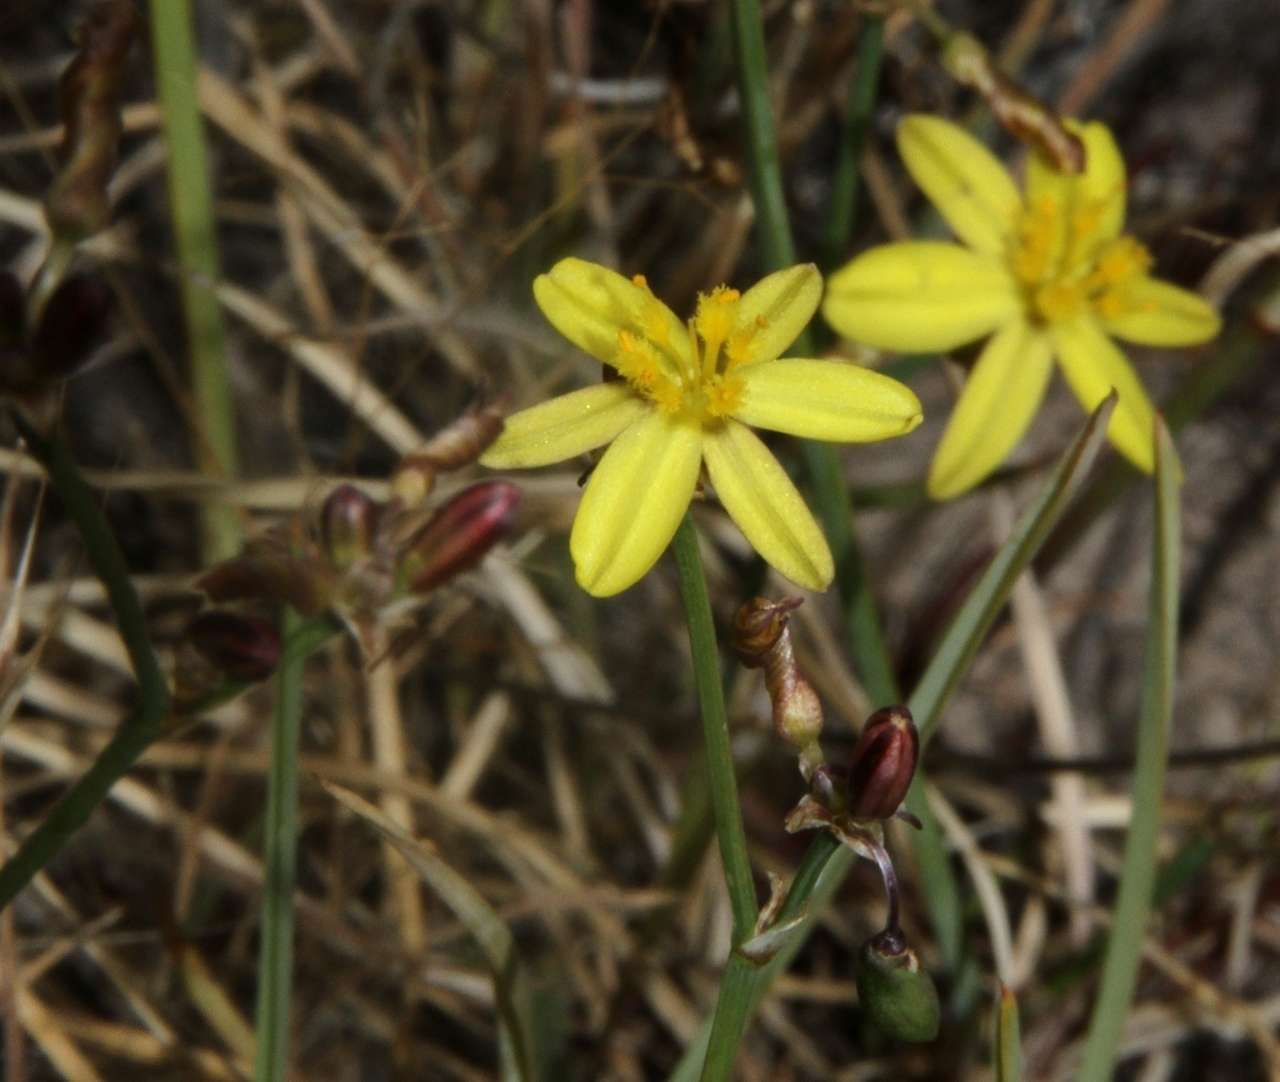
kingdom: Plantae
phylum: Tracheophyta
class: Liliopsida
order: Asparagales
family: Asphodelaceae
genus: Tricoryne
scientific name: Tricoryne elatior
